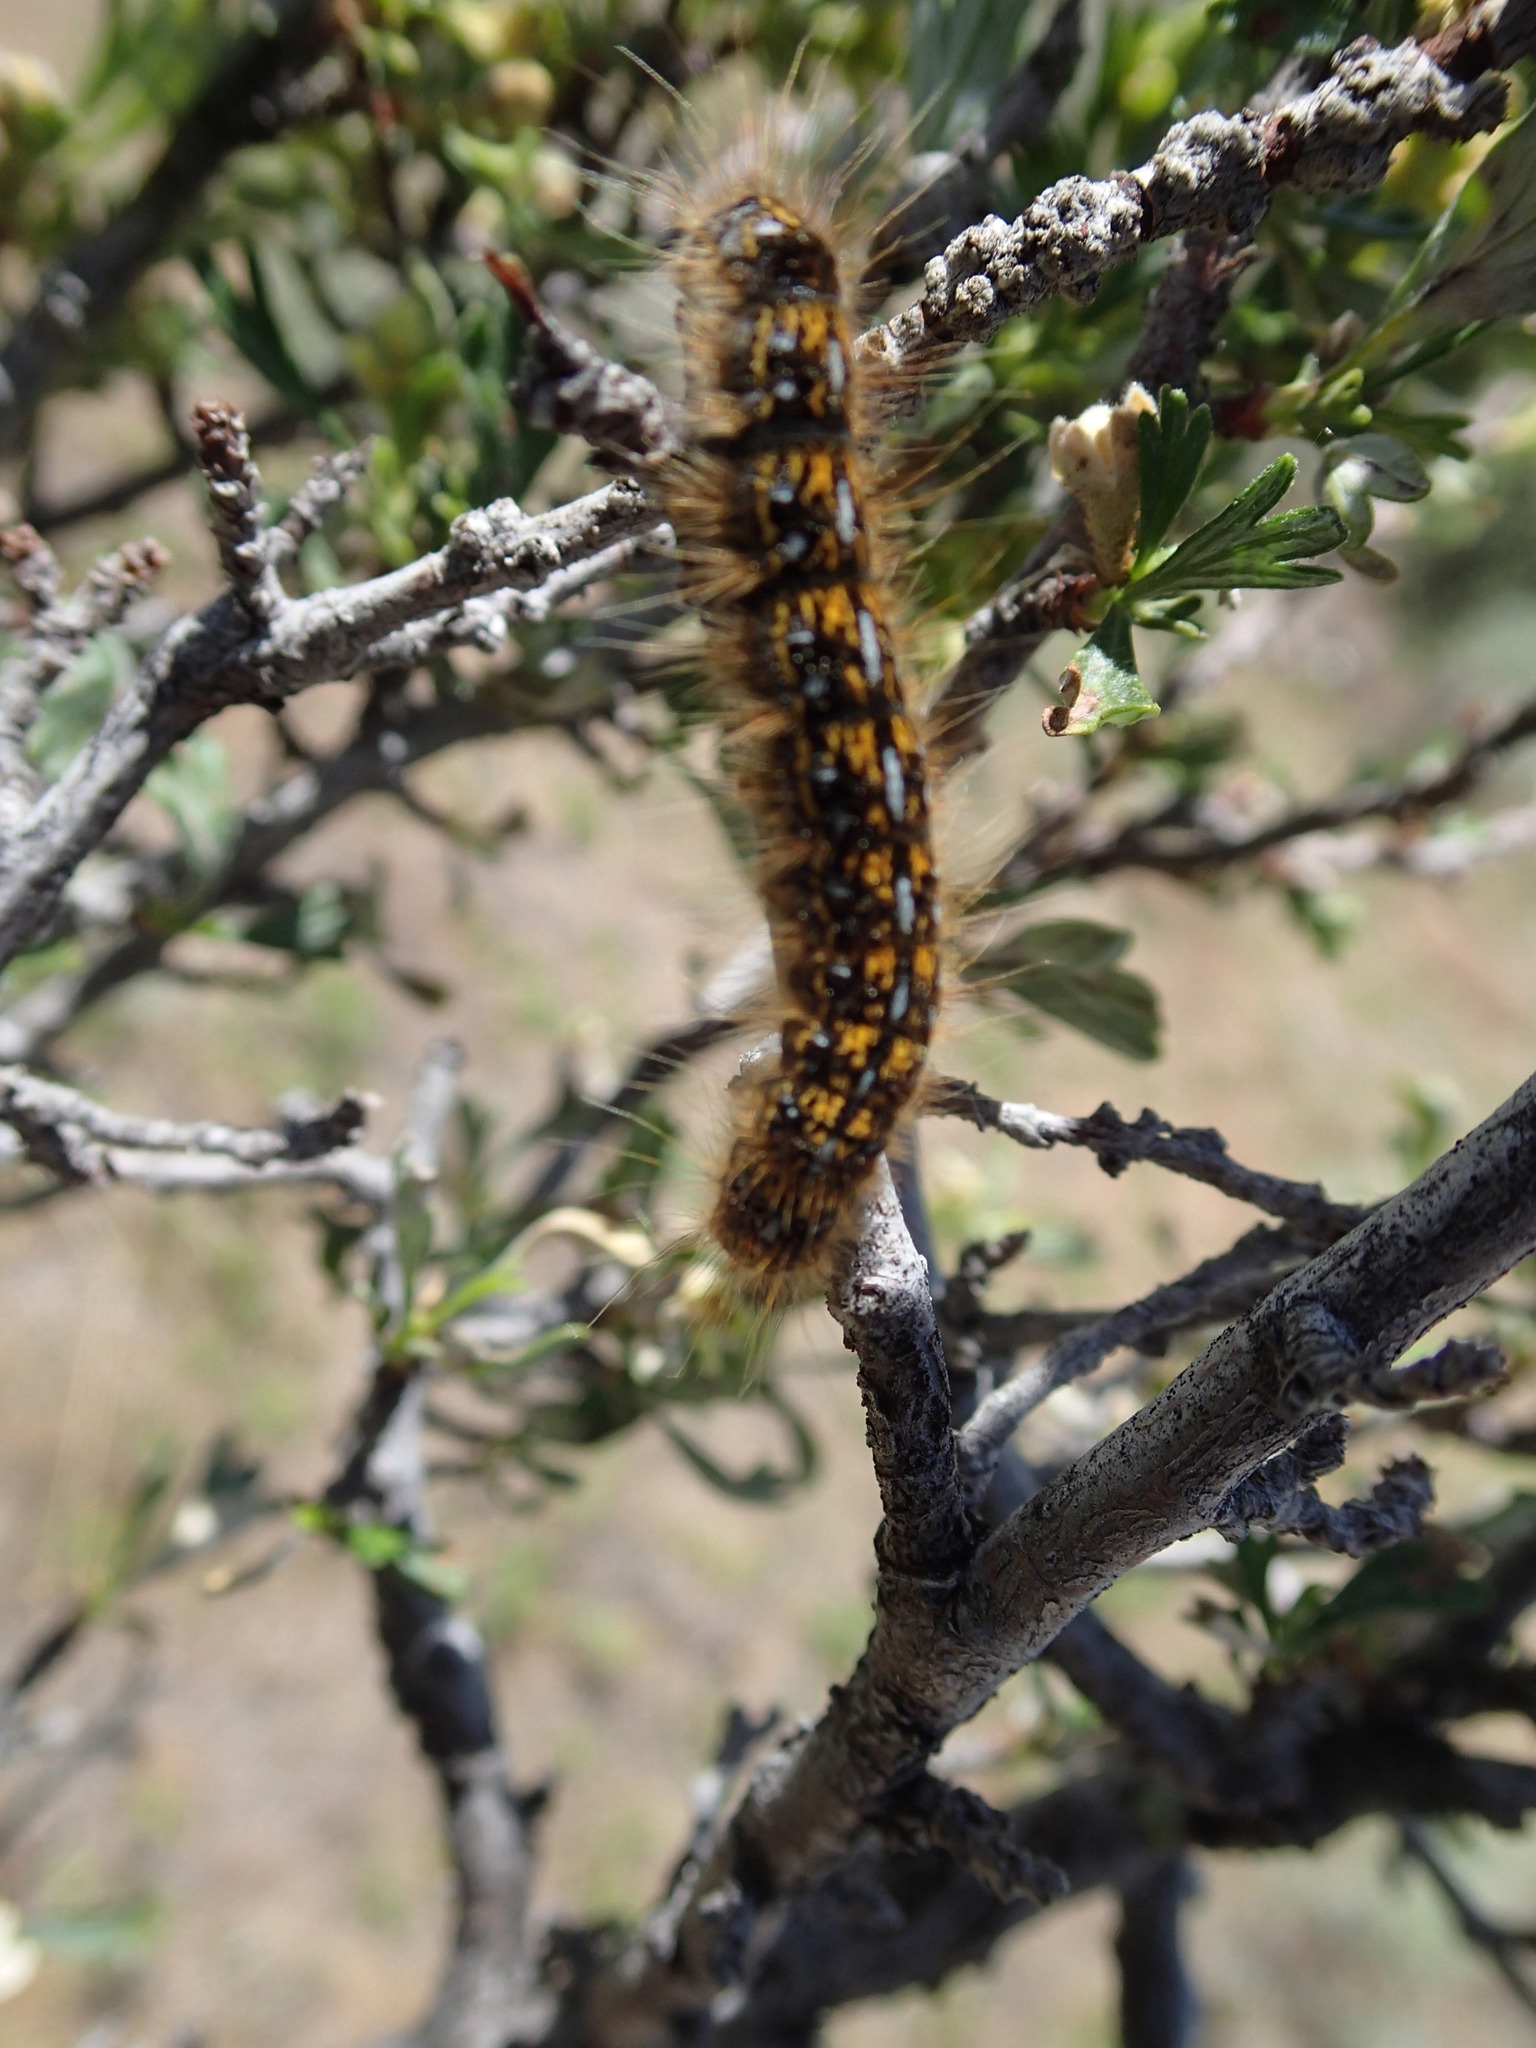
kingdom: Animalia
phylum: Arthropoda
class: Insecta
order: Lepidoptera
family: Lasiocampidae
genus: Malacosoma
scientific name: Malacosoma californica
